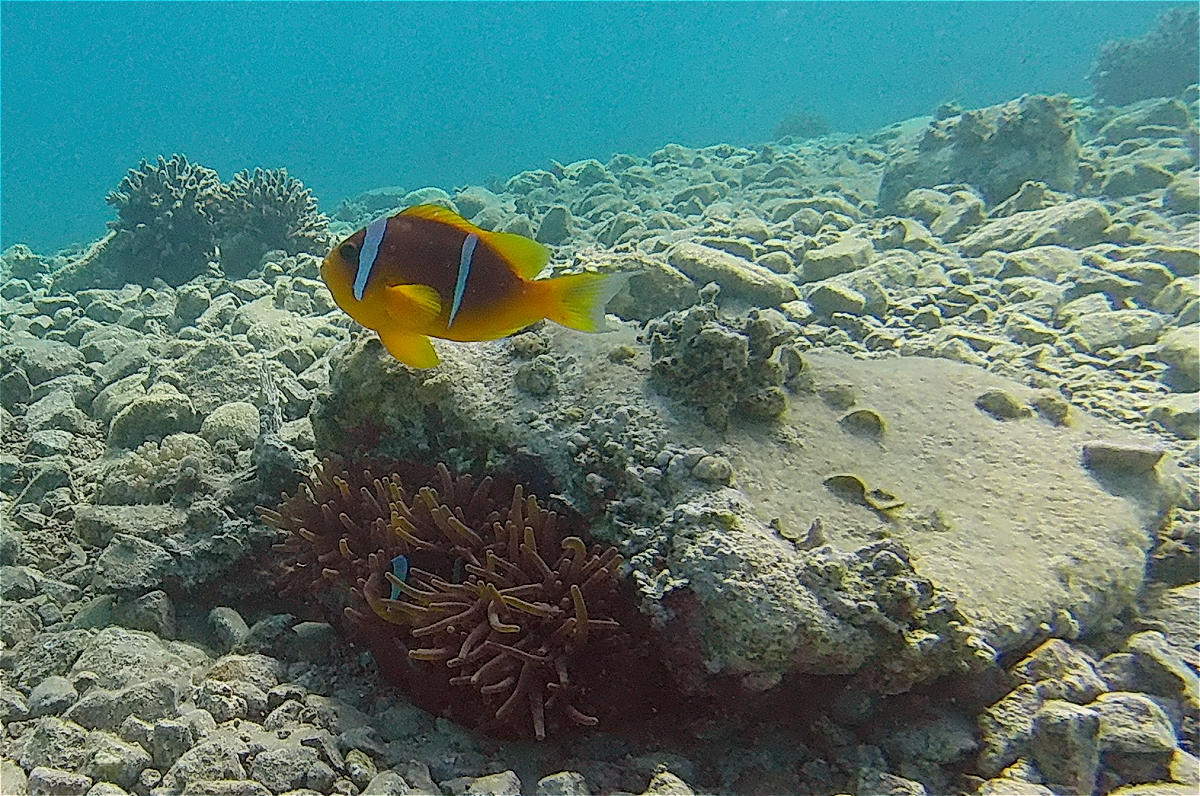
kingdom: Animalia
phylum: Chordata
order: Perciformes
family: Pomacentridae
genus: Amphiprion
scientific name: Amphiprion bicinctus
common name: Two-banded anemonefish
